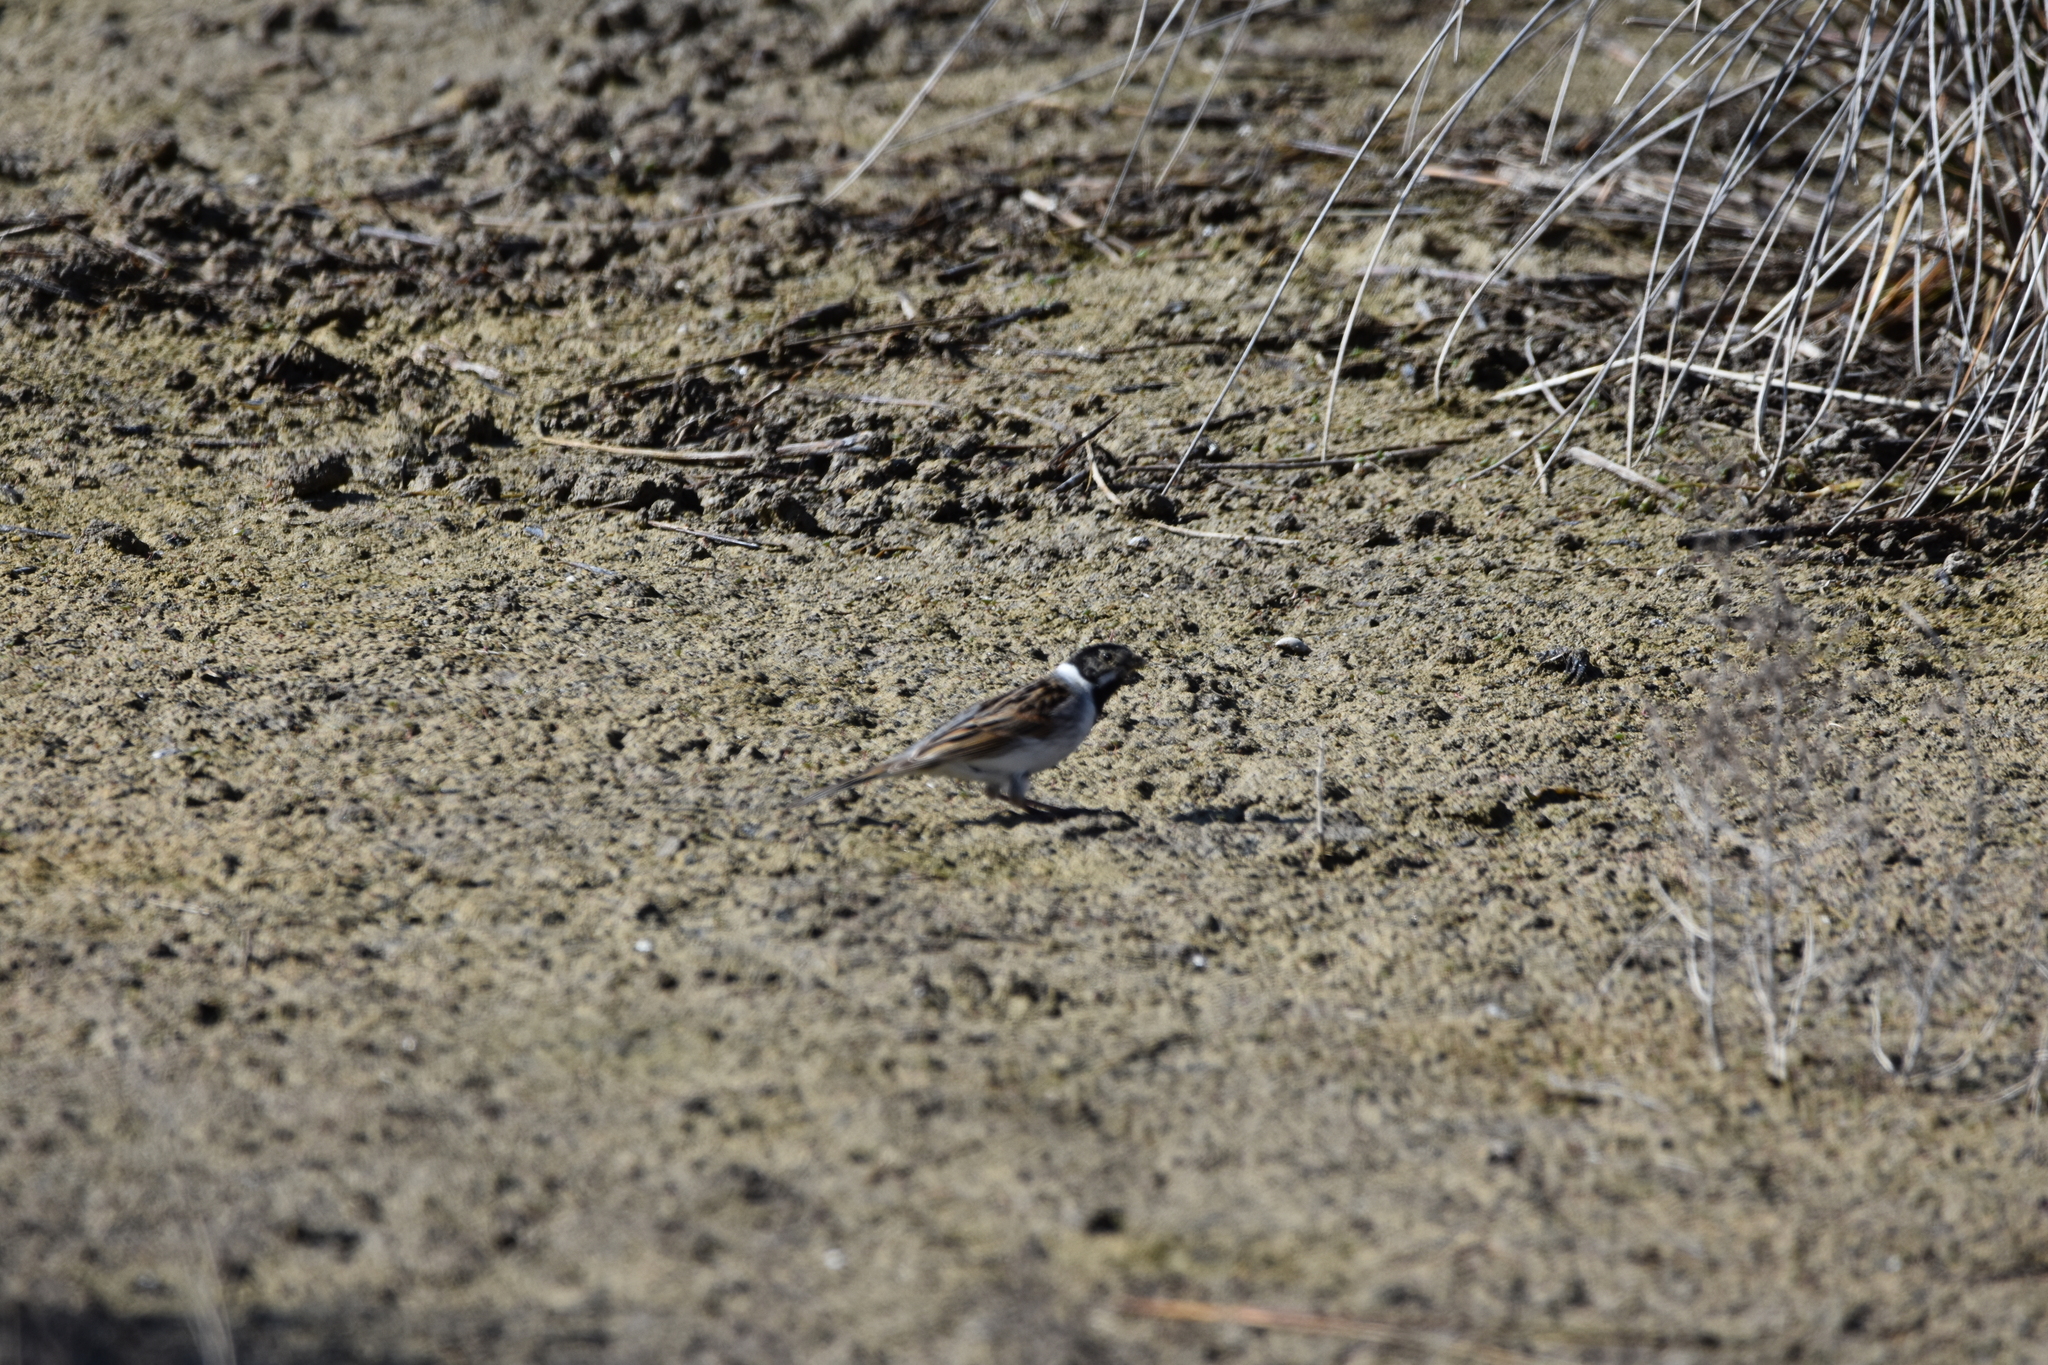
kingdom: Animalia
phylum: Chordata
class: Aves
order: Passeriformes
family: Emberizidae
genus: Emberiza
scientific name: Emberiza schoeniclus
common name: Reed bunting
